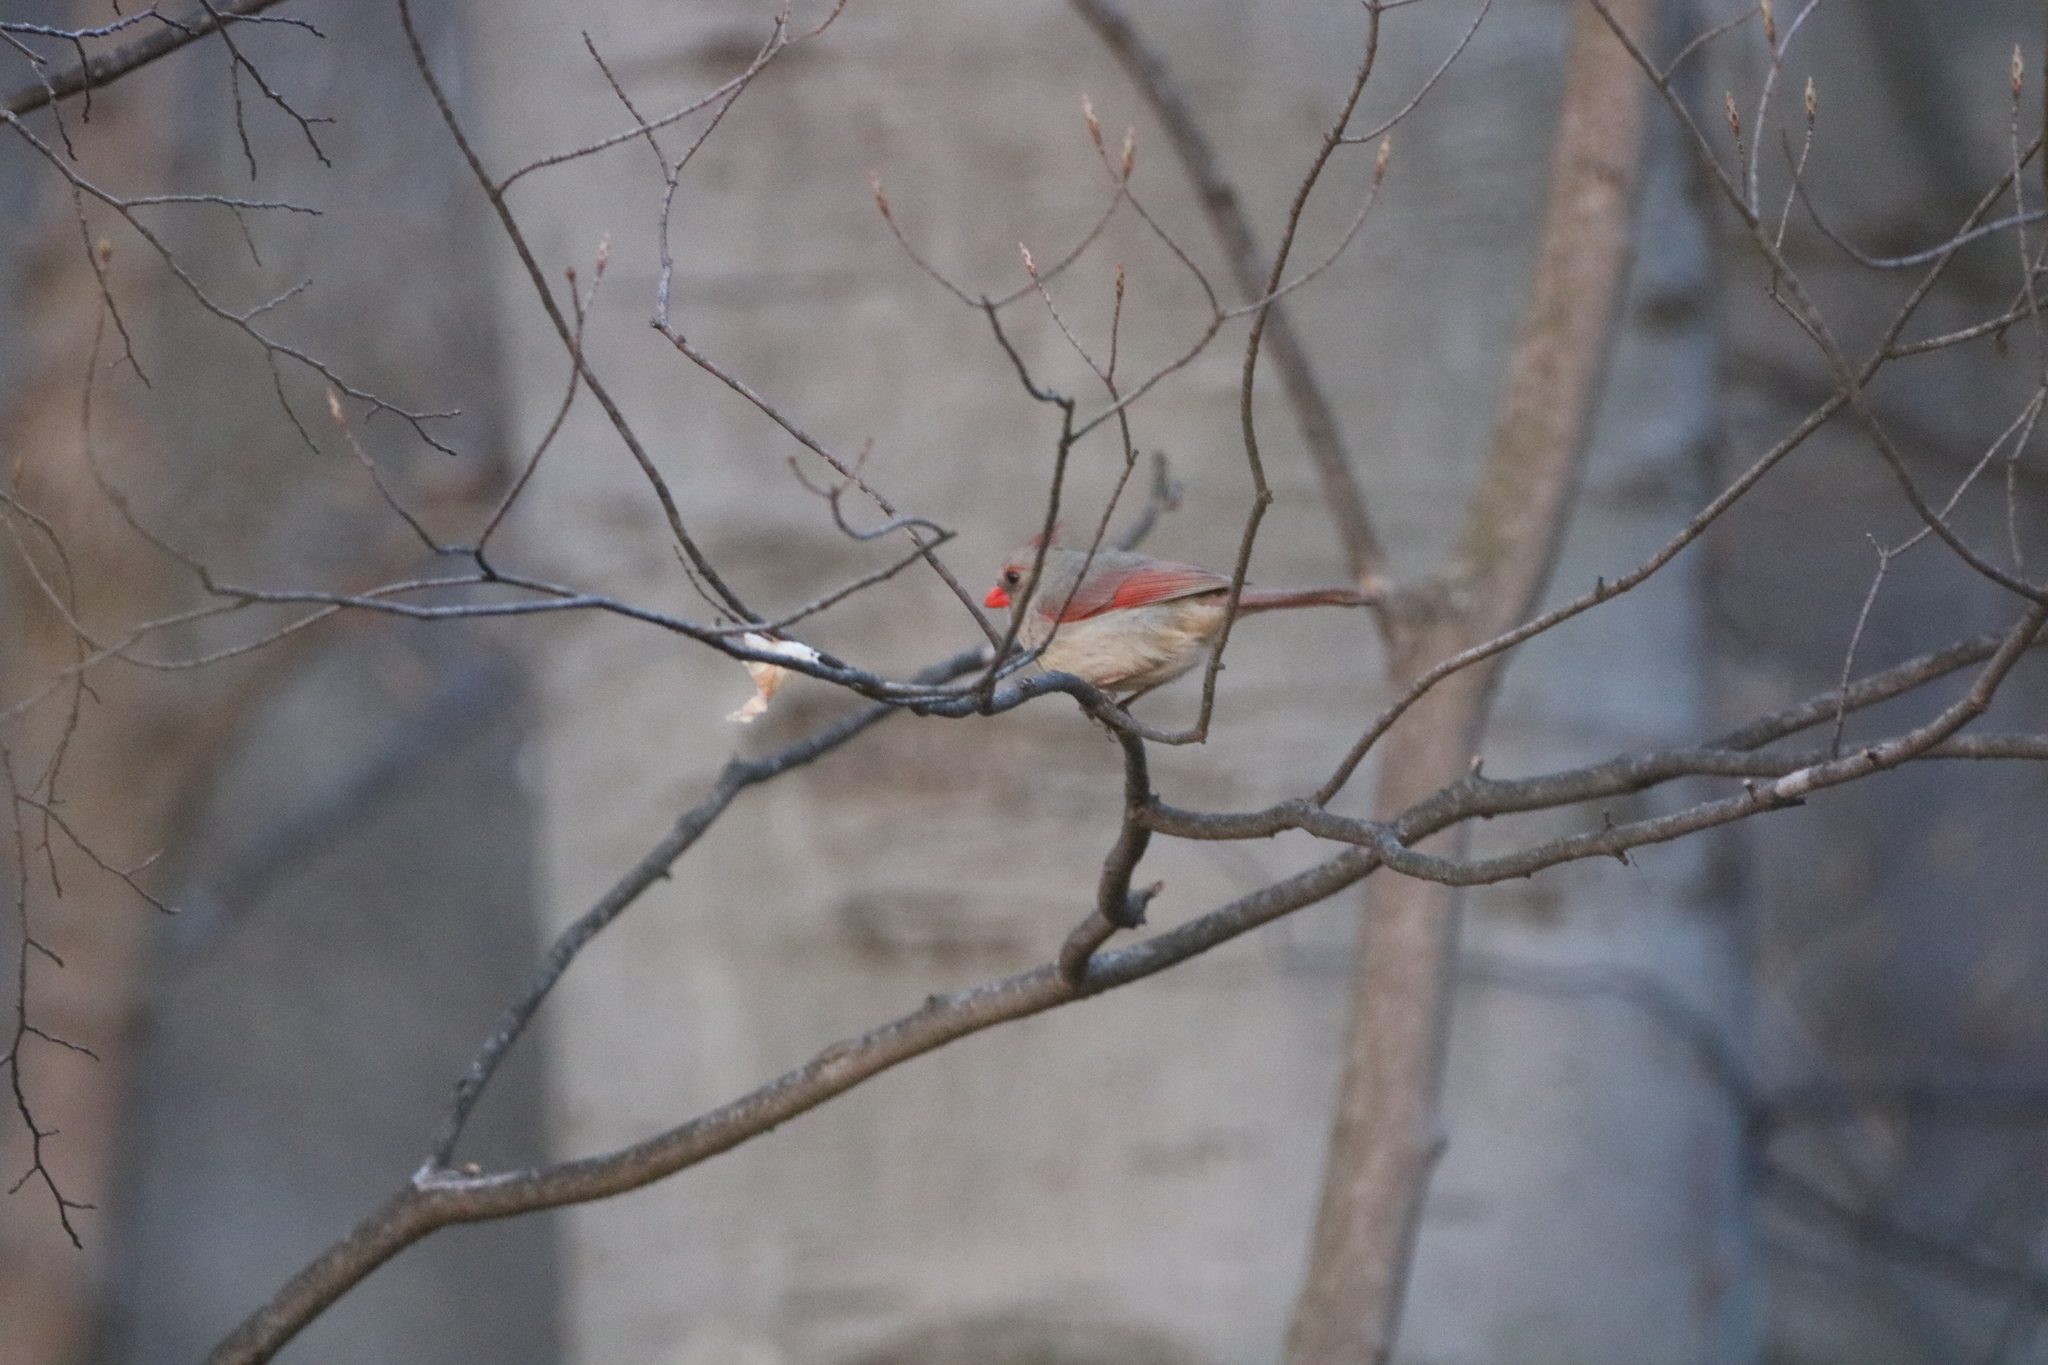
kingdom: Animalia
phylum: Chordata
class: Aves
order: Passeriformes
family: Cardinalidae
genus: Cardinalis
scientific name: Cardinalis cardinalis
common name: Northern cardinal
